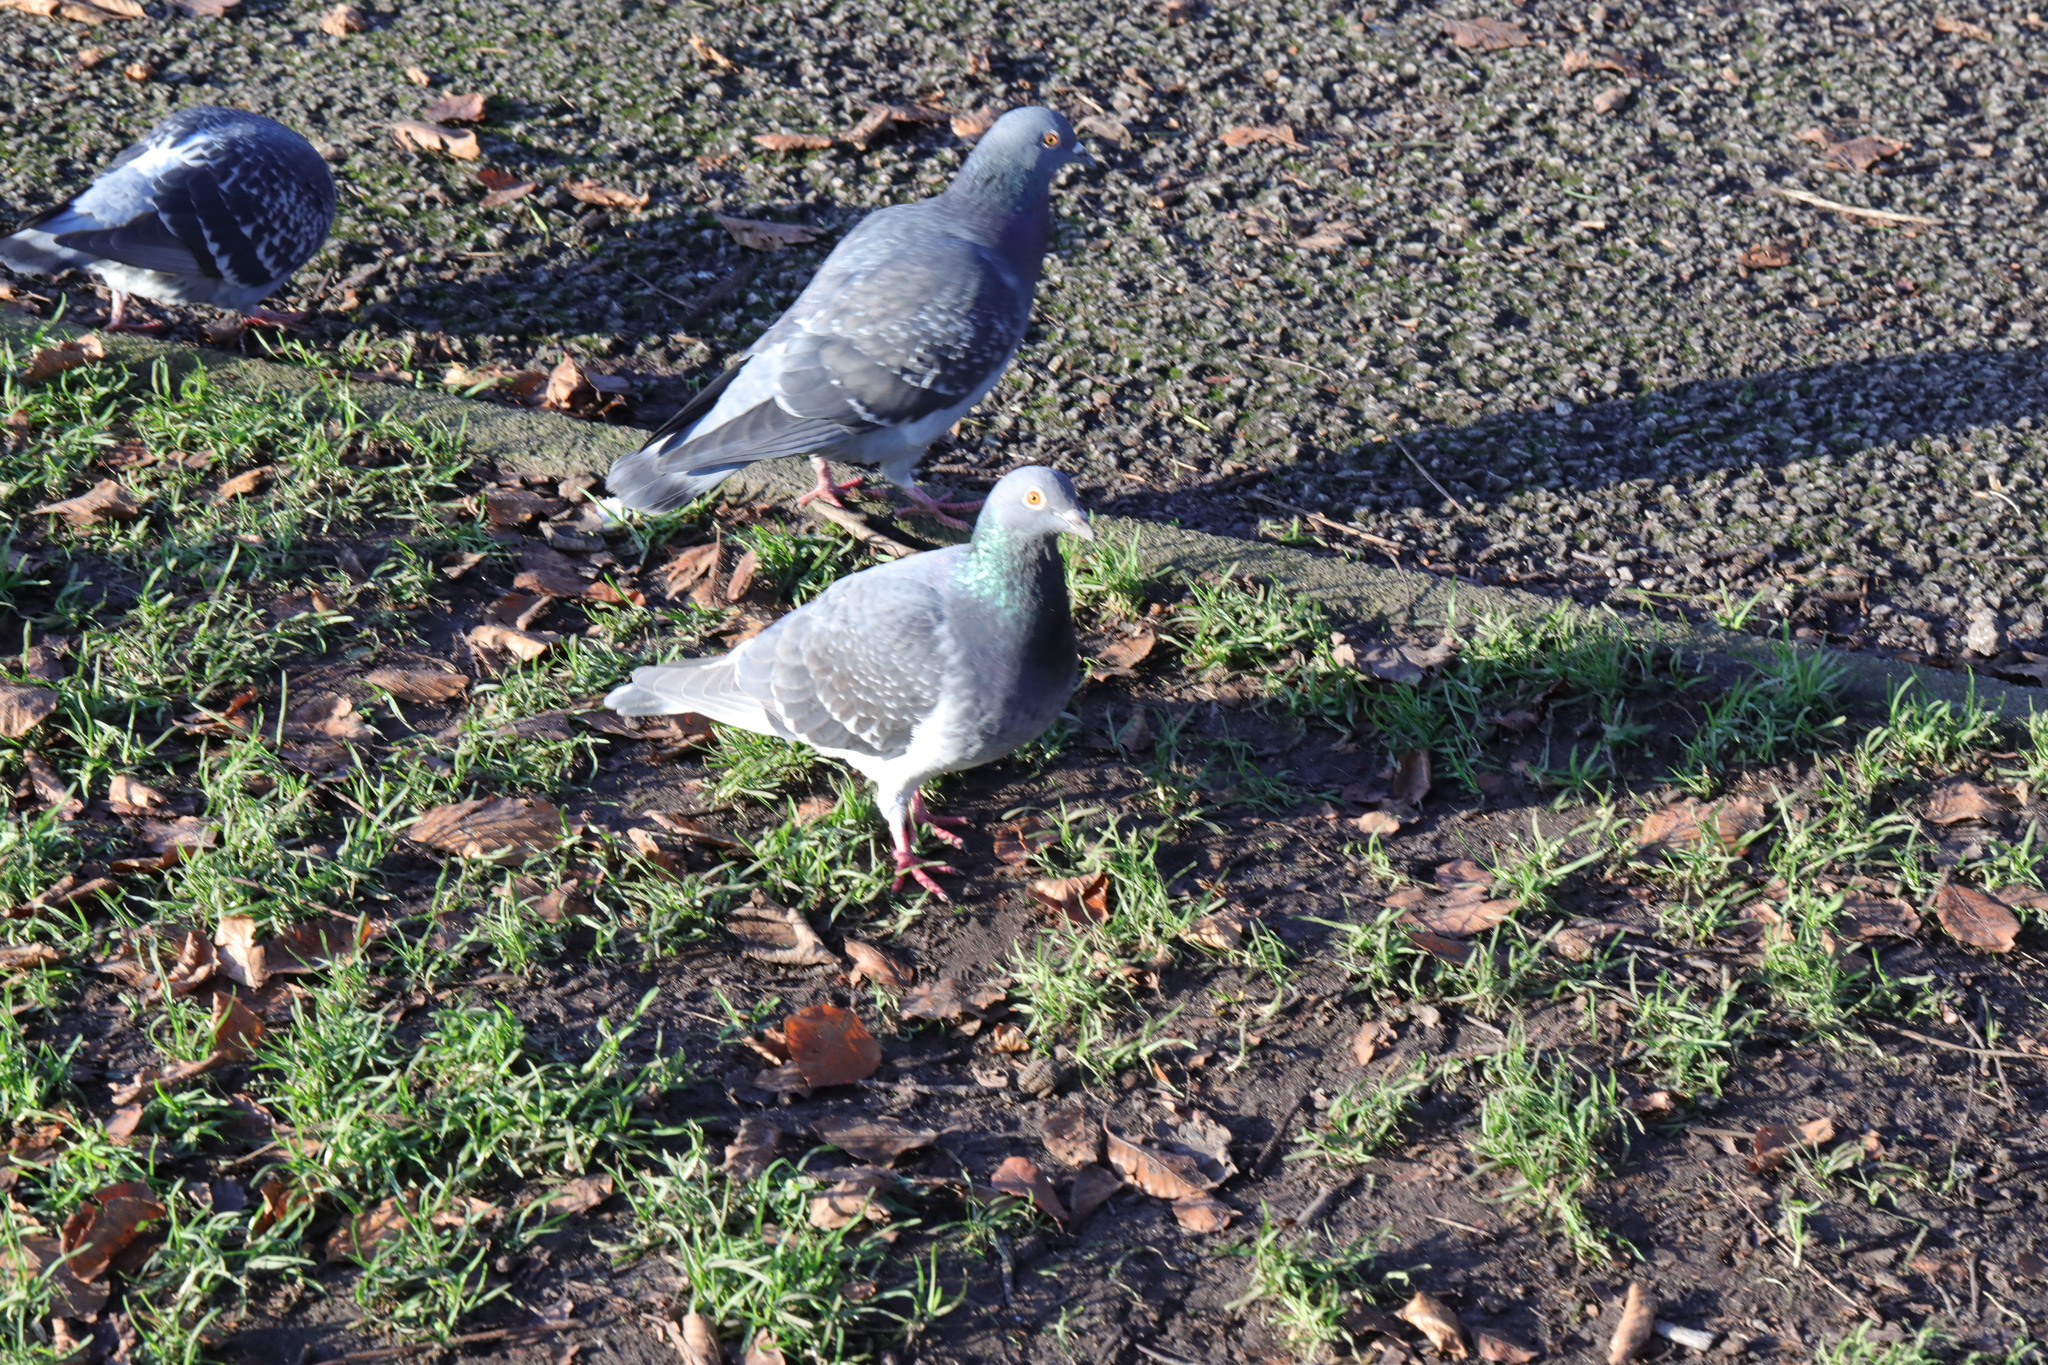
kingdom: Animalia
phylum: Chordata
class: Aves
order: Columbiformes
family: Columbidae
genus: Columba
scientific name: Columba livia
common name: Rock pigeon
